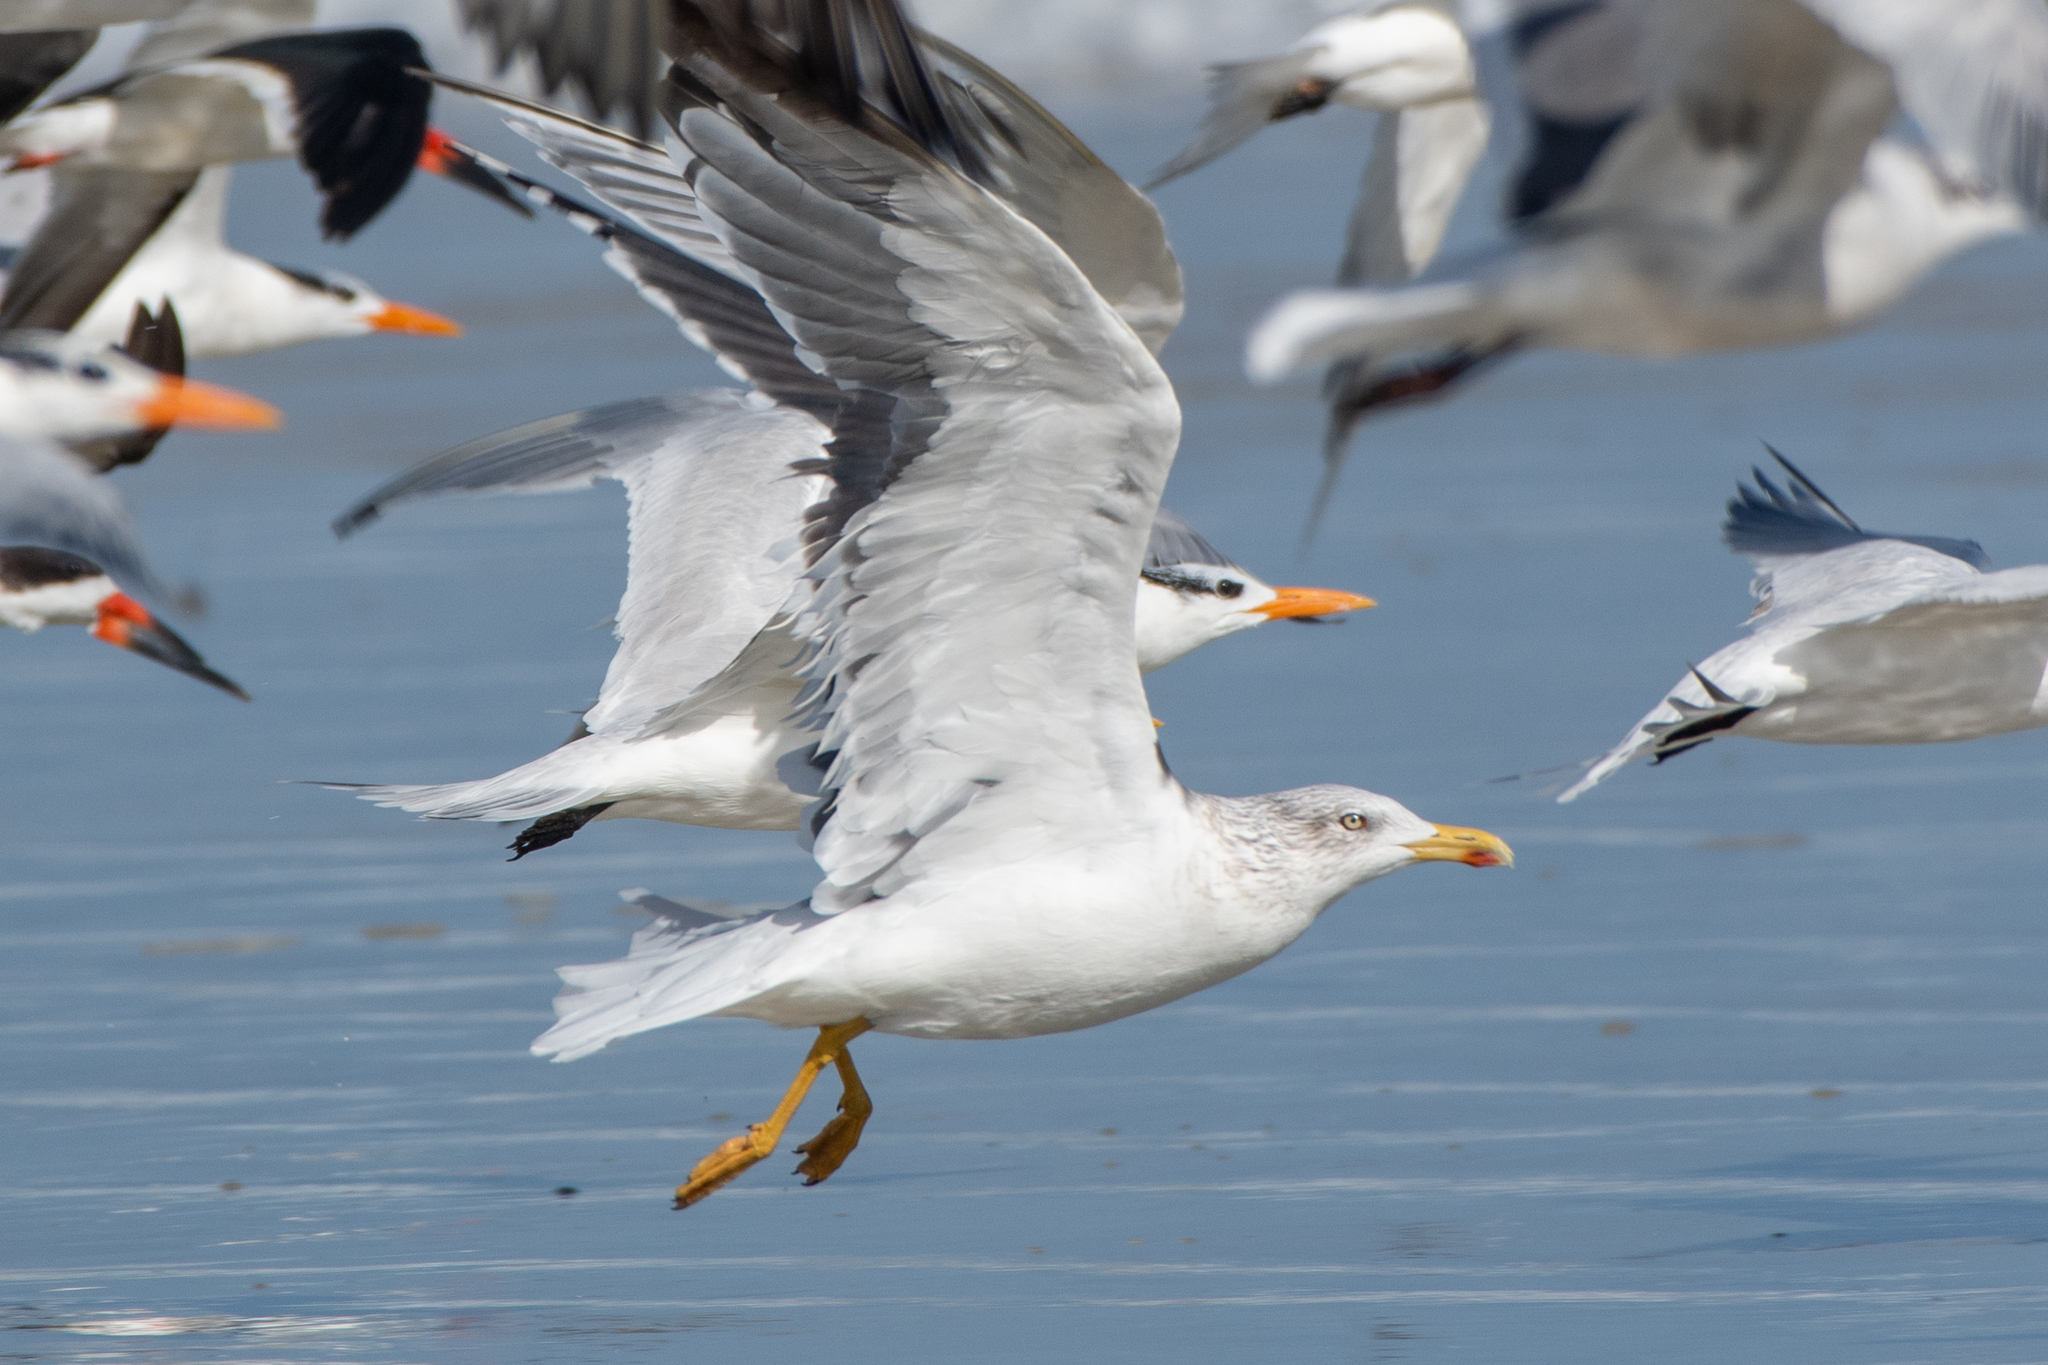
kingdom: Animalia
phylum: Chordata
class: Aves
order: Charadriiformes
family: Laridae
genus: Larus
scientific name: Larus fuscus
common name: Lesser black-backed gull
